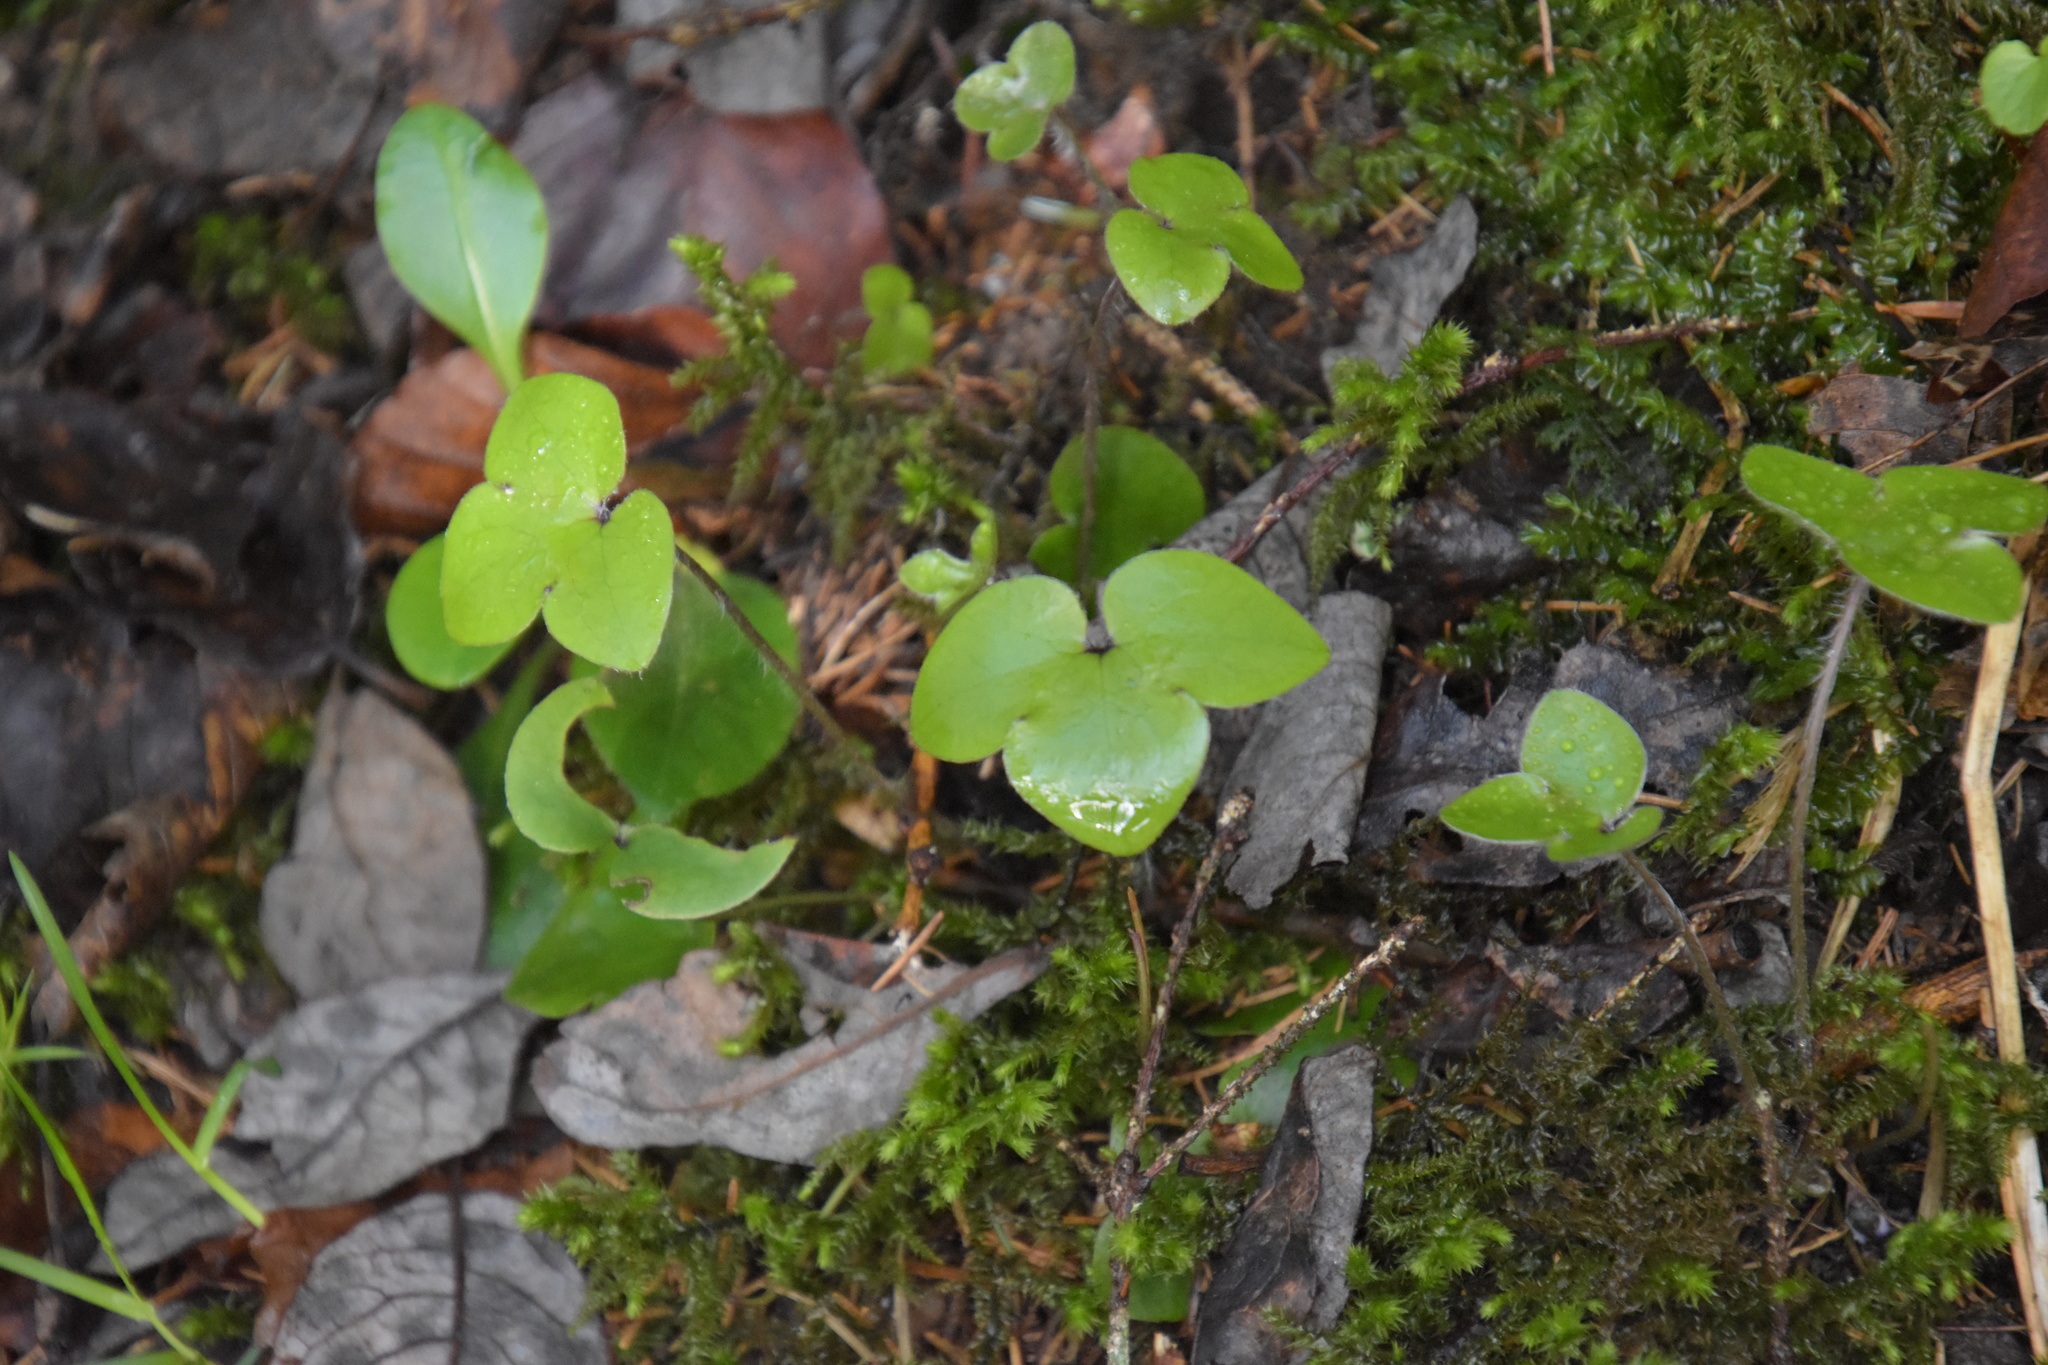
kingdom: Plantae
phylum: Tracheophyta
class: Magnoliopsida
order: Ranunculales
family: Ranunculaceae
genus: Hepatica
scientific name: Hepatica nobilis
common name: Liverleaf
